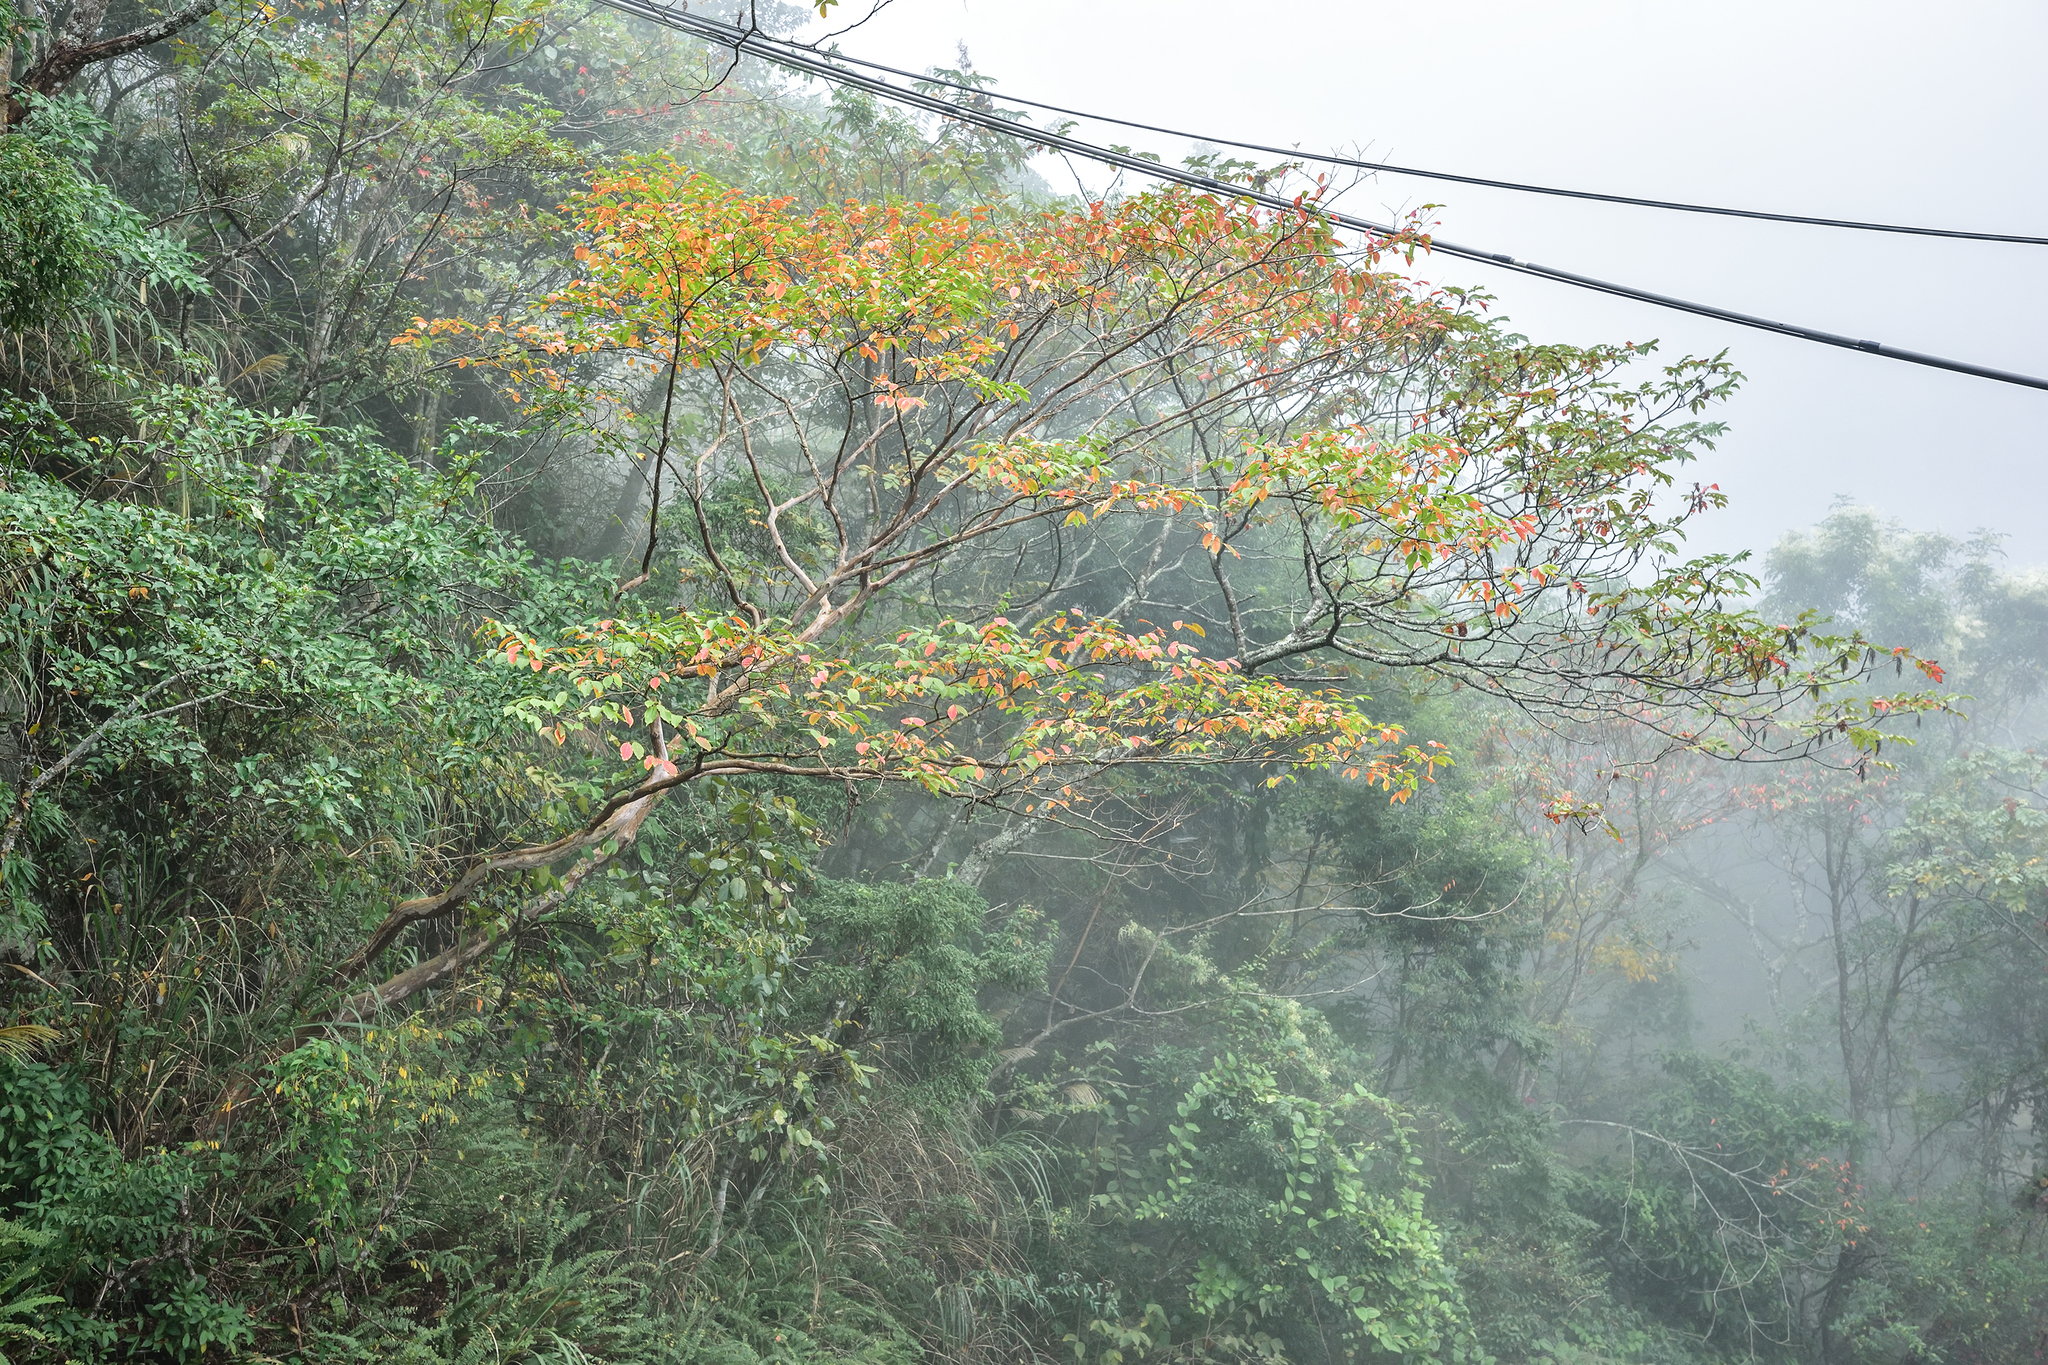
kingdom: Plantae
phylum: Tracheophyta
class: Magnoliopsida
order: Myrtales
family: Lythraceae
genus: Lagerstroemia
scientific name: Lagerstroemia subcostata
